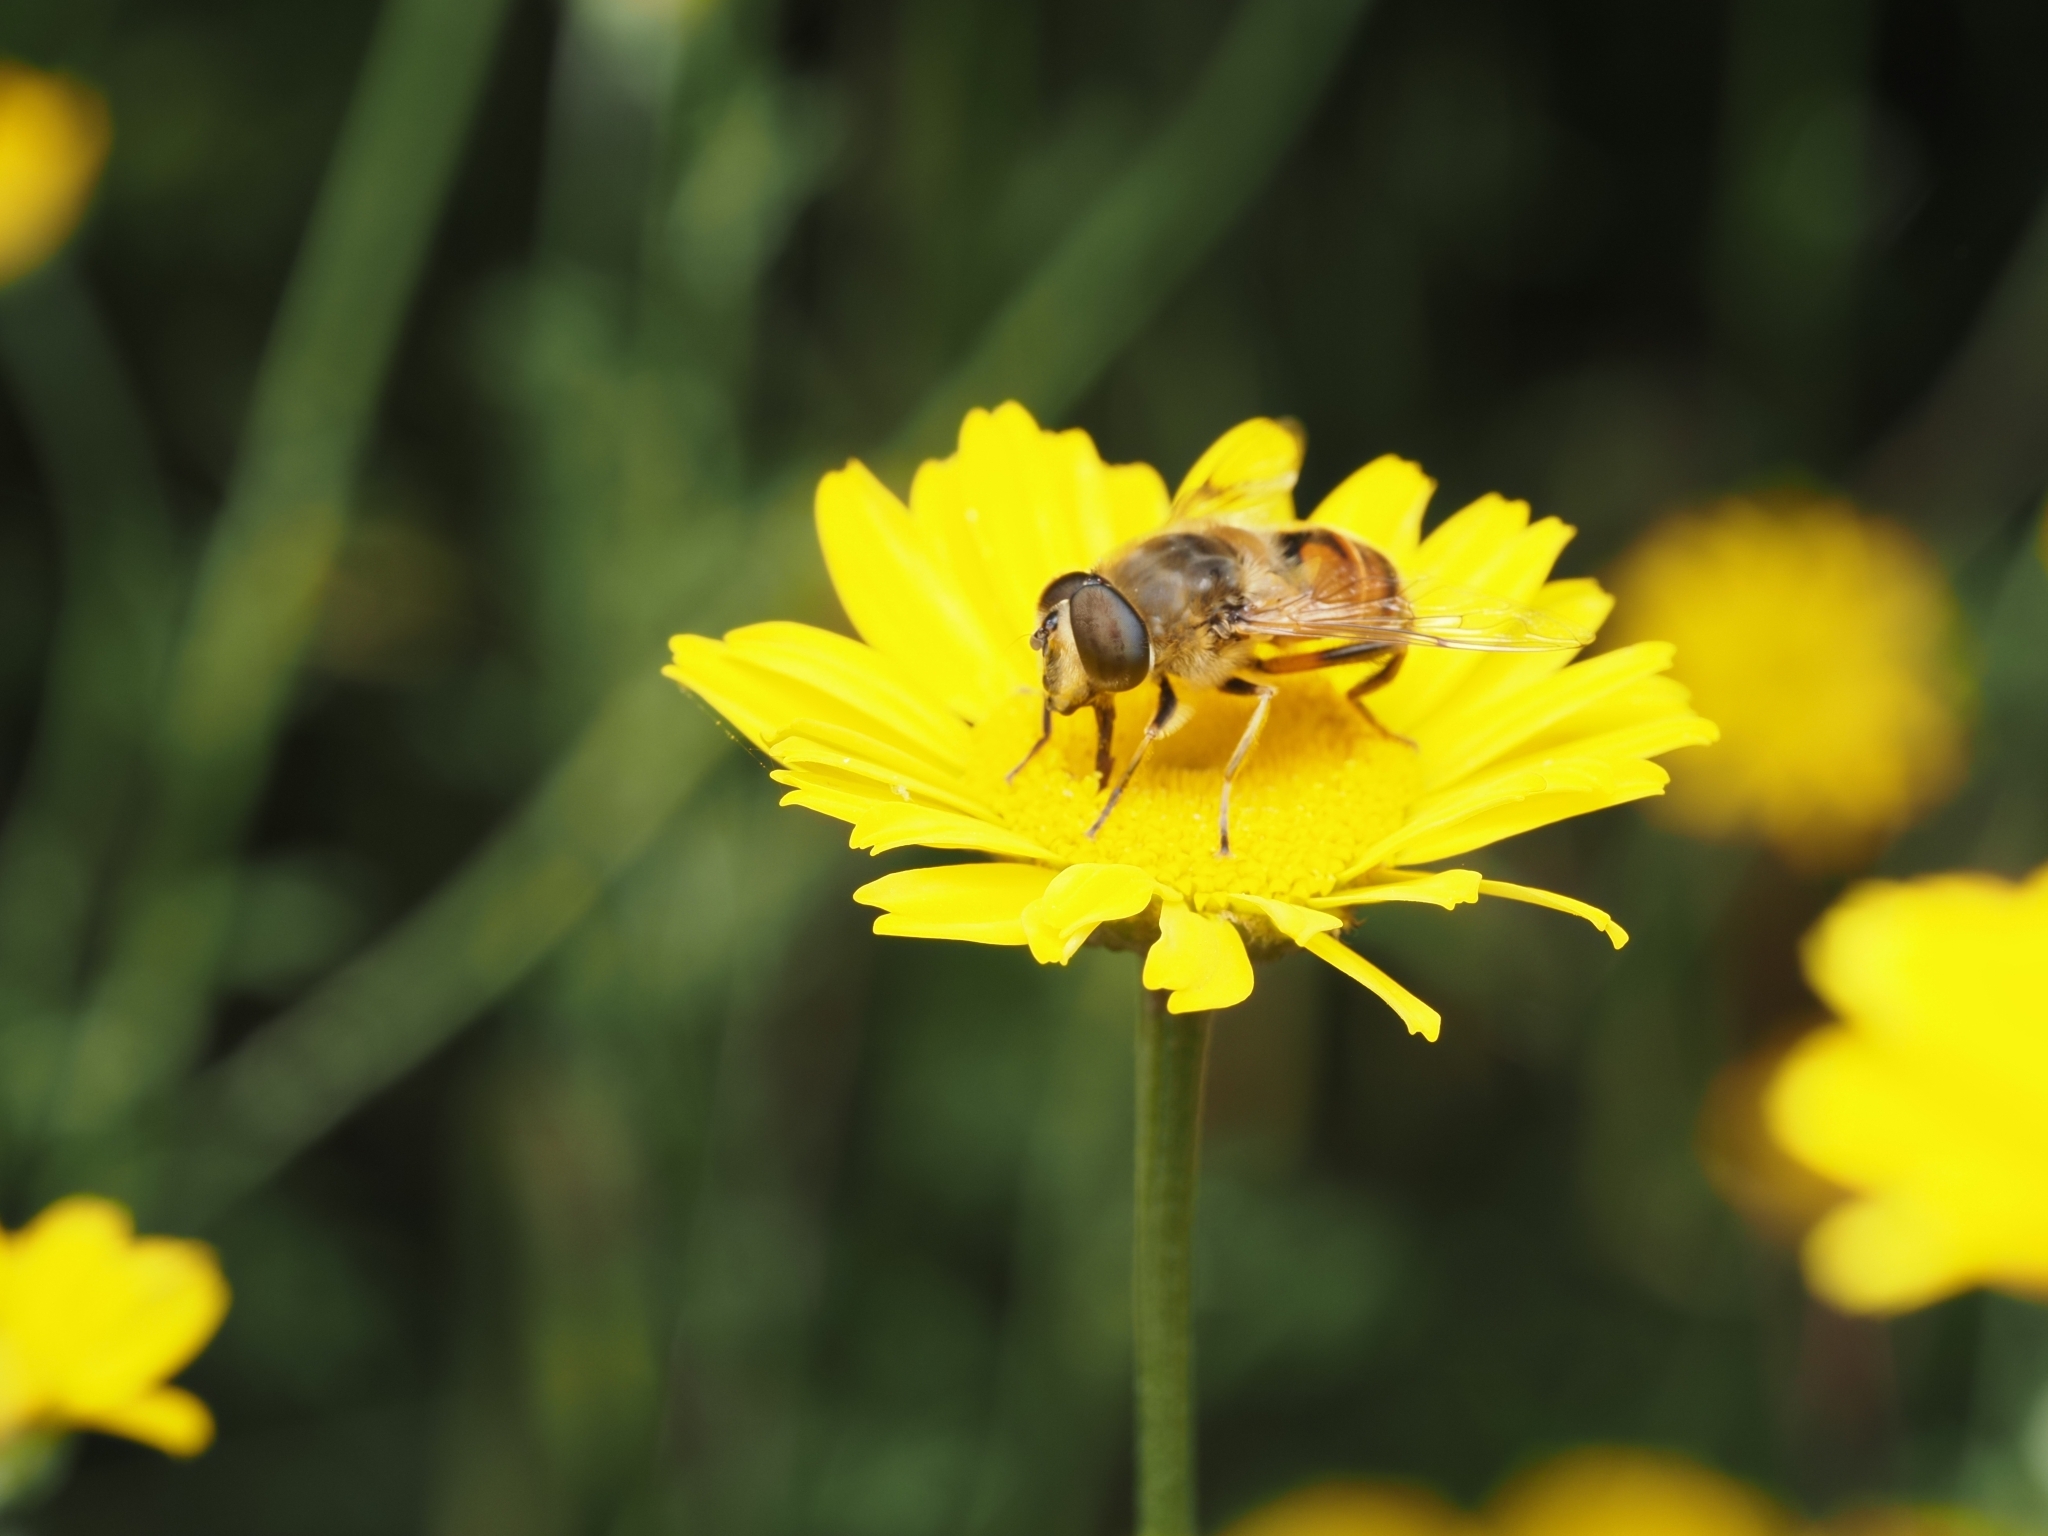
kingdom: Animalia
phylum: Arthropoda
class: Insecta
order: Diptera
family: Syrphidae
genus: Eristalis
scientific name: Eristalis tenax
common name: Drone fly
